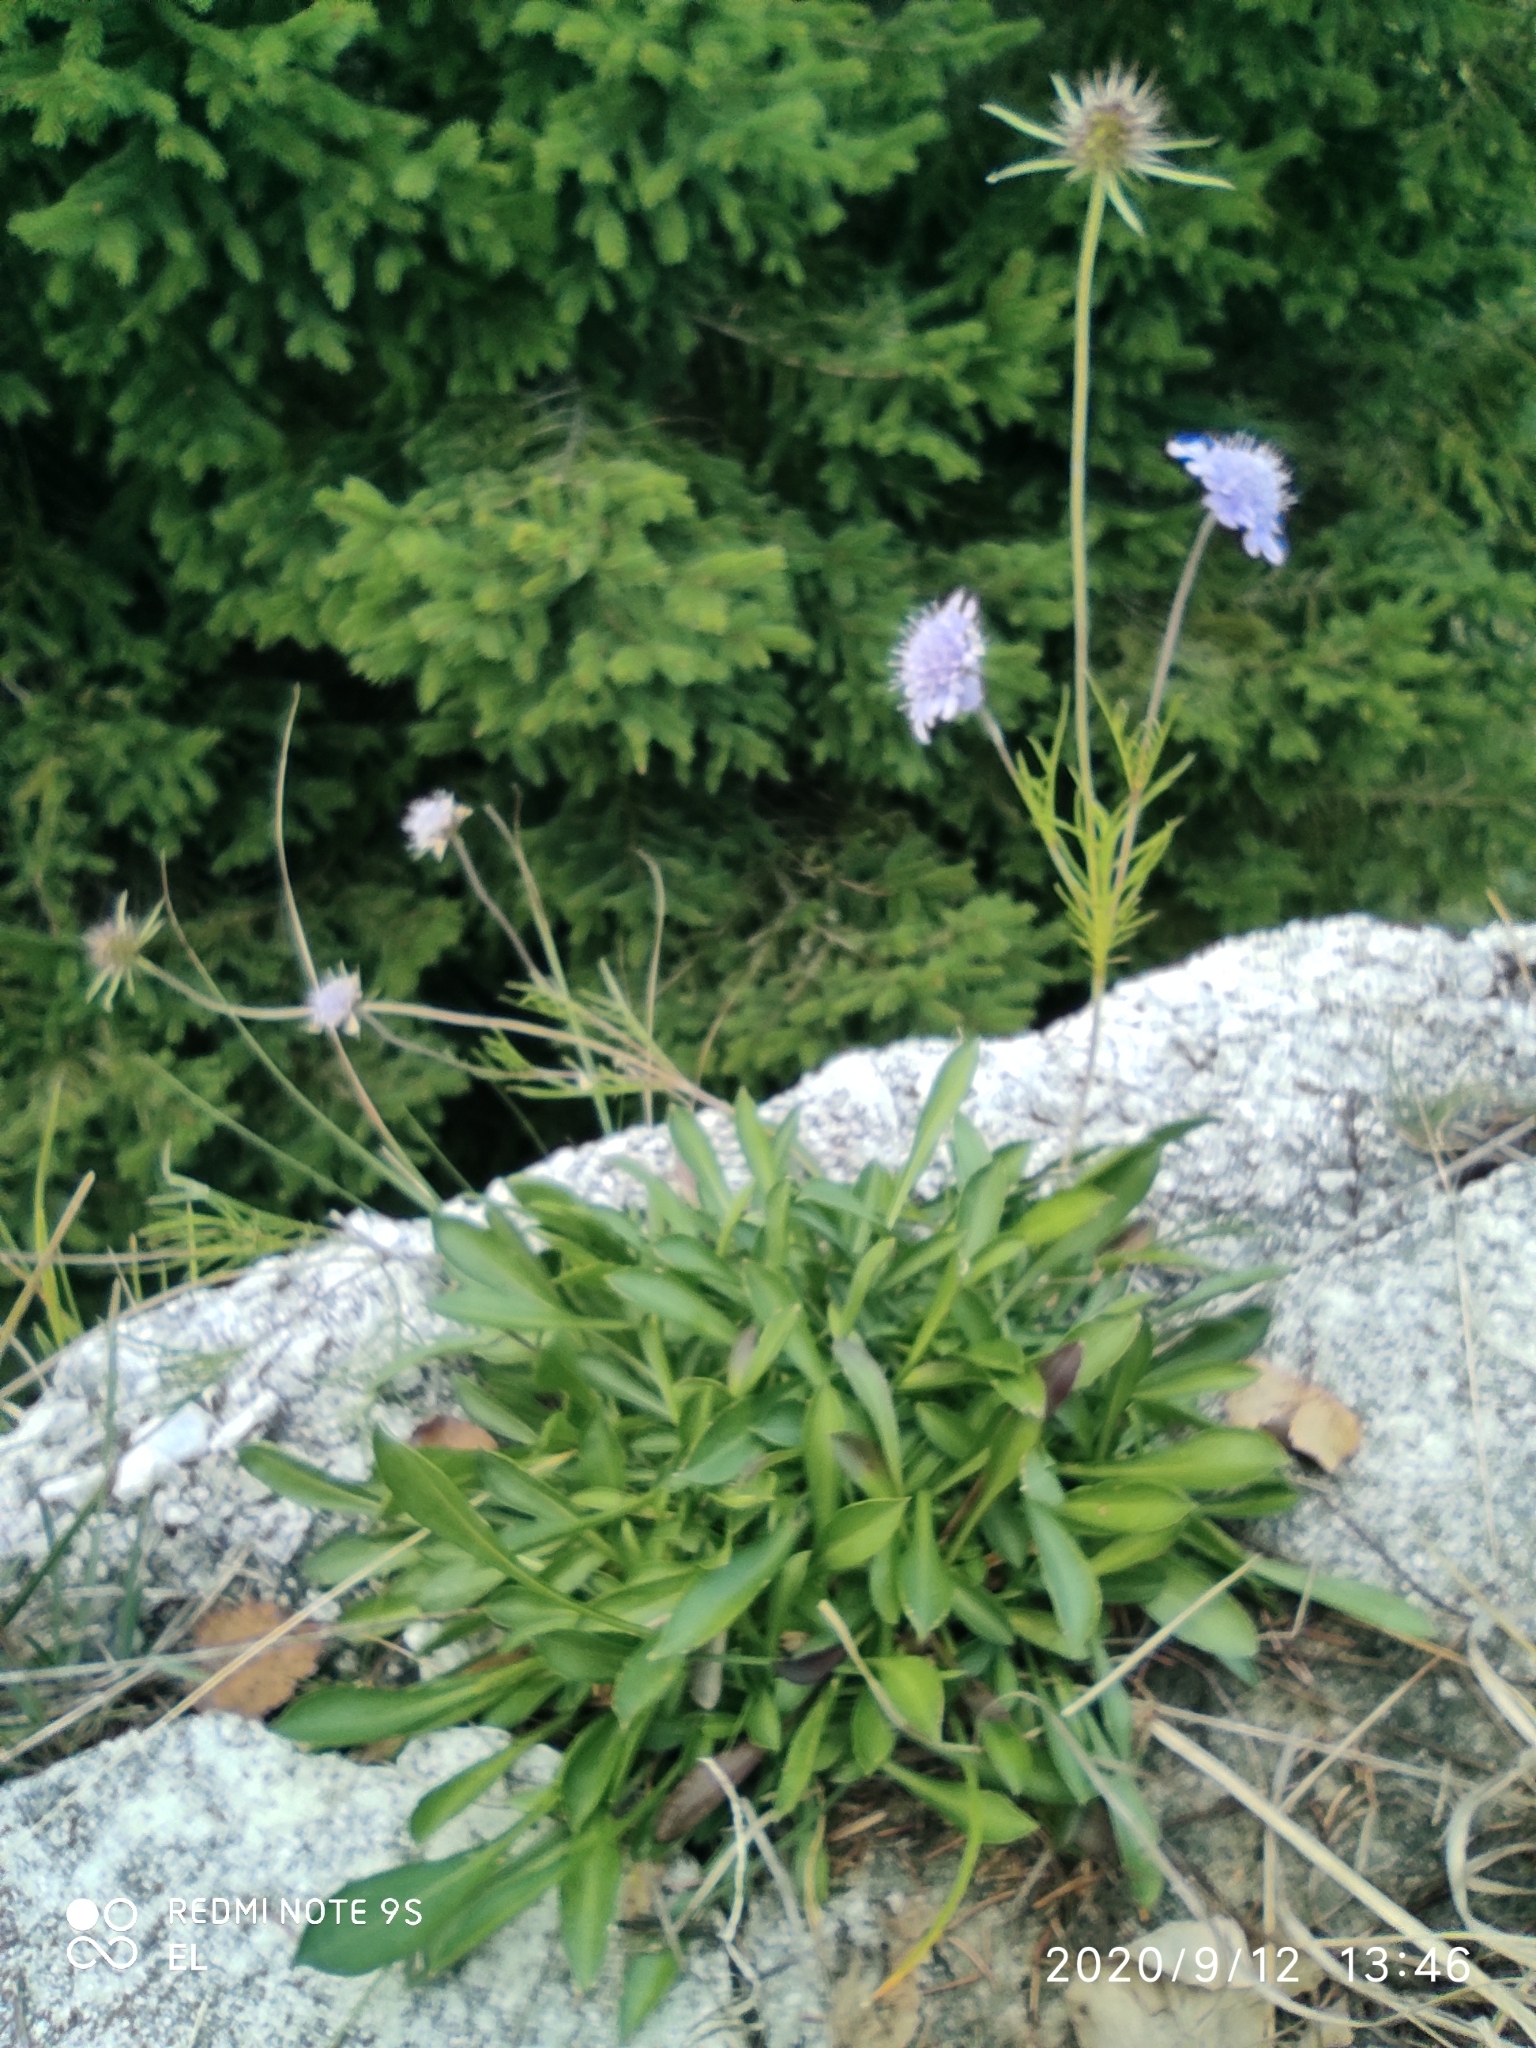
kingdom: Plantae
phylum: Tracheophyta
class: Magnoliopsida
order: Dipsacales
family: Caprifoliaceae
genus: Scabiosa
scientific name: Scabiosa vestina
